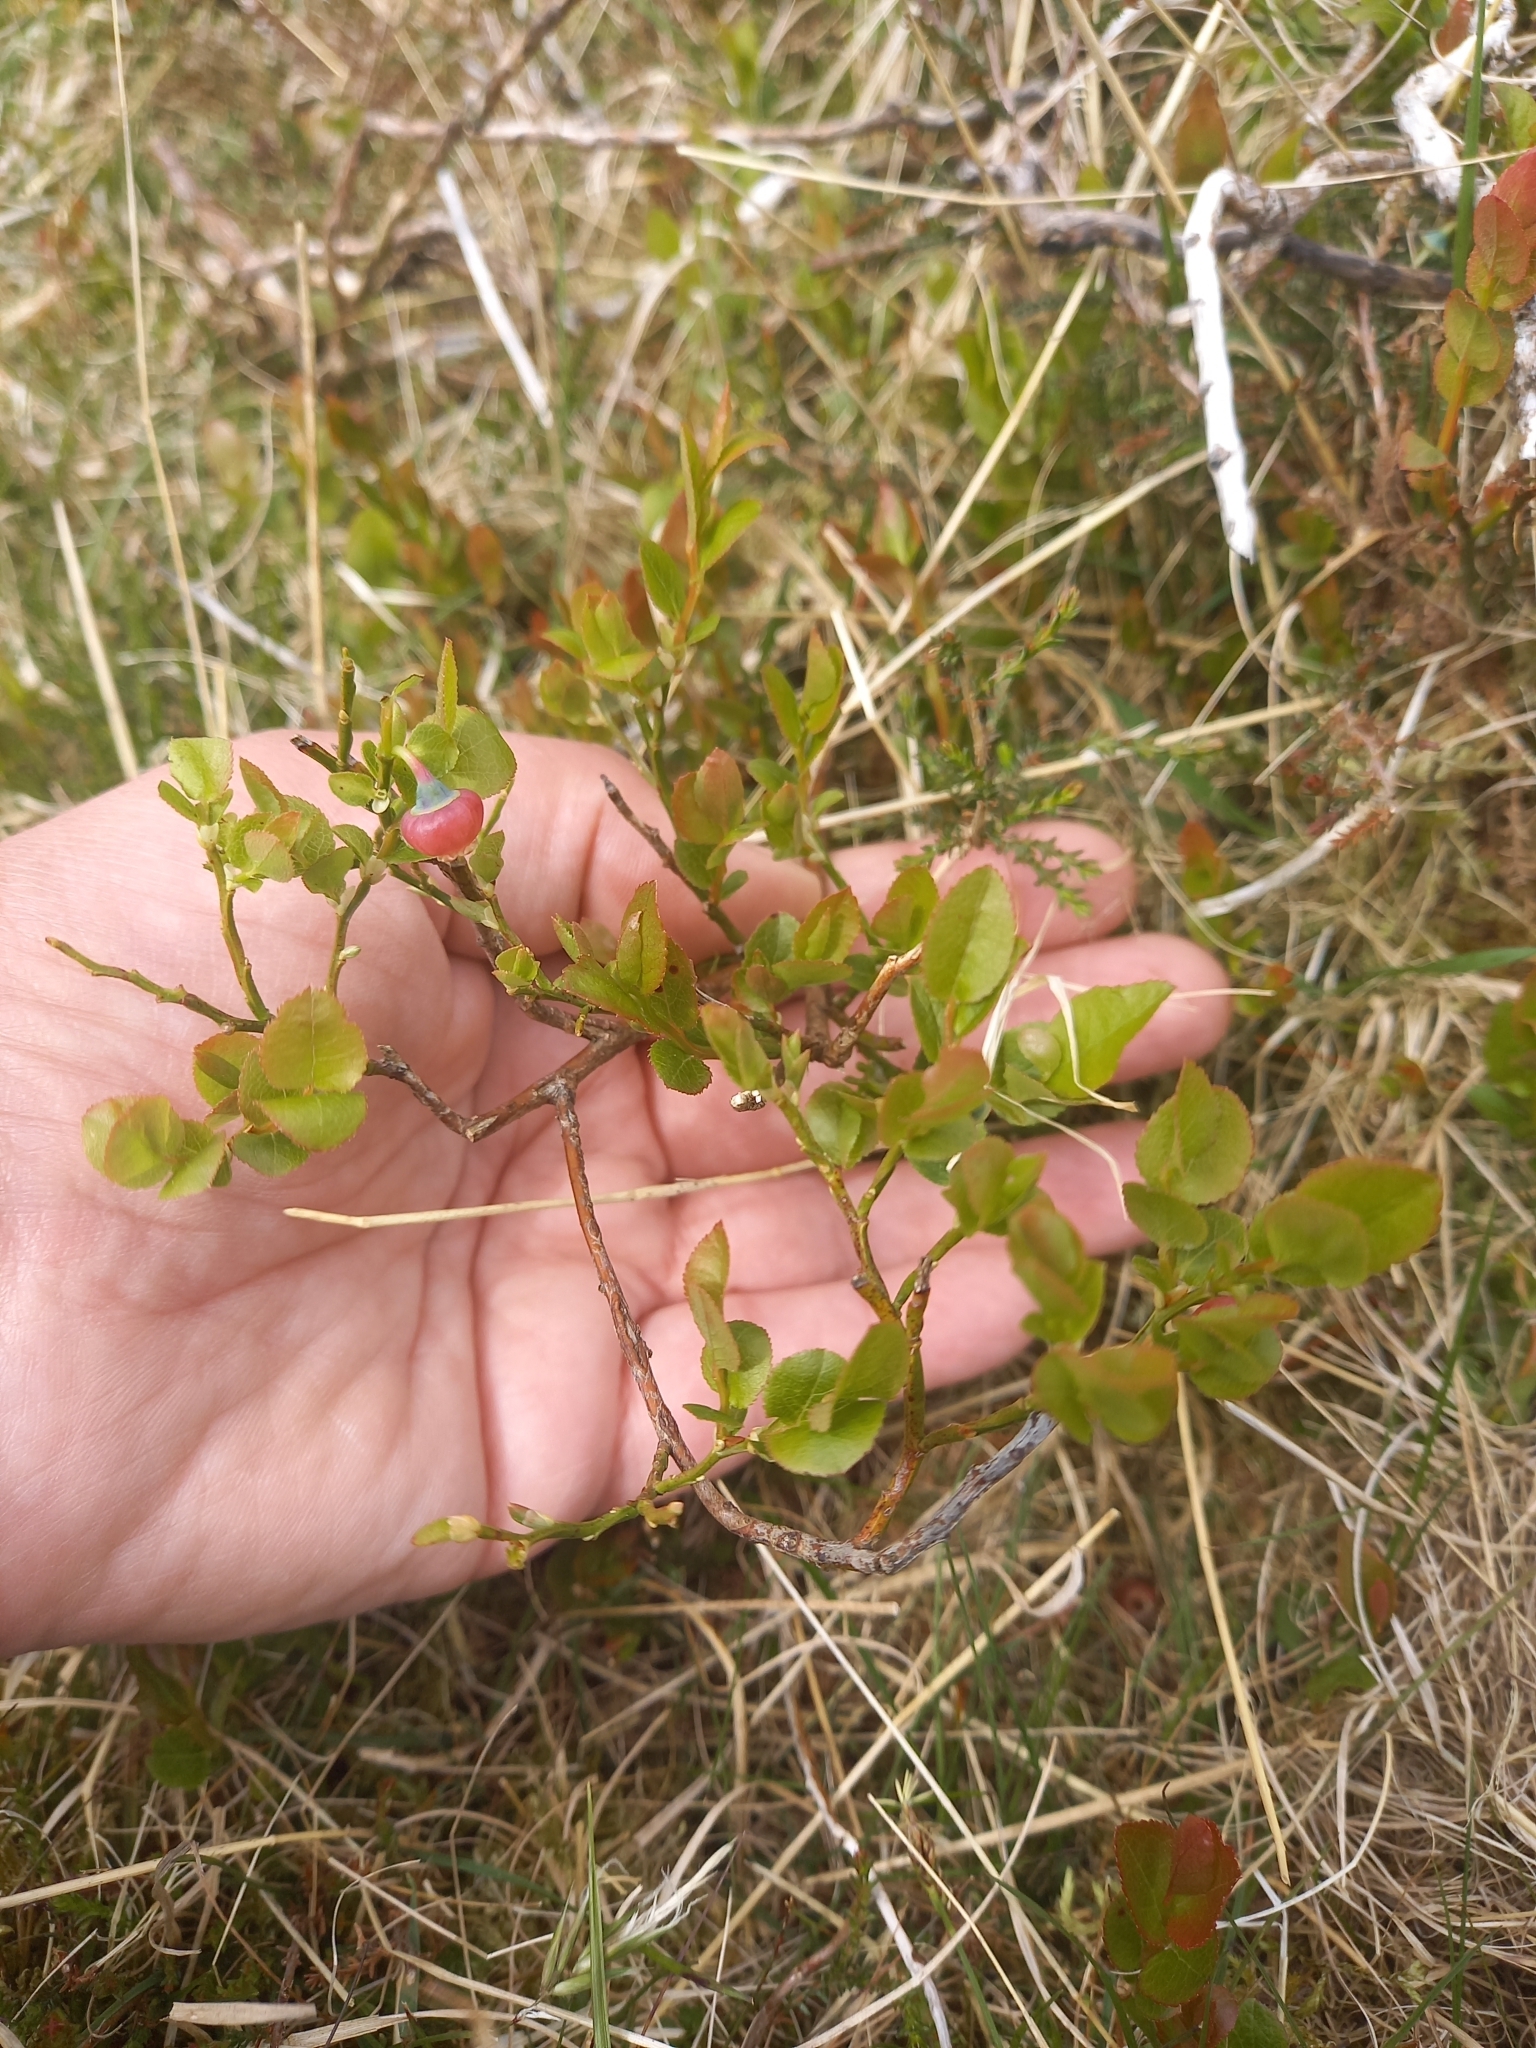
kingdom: Plantae
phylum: Tracheophyta
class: Magnoliopsida
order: Ericales
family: Ericaceae
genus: Vaccinium
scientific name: Vaccinium myrtillus
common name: Bilberry
